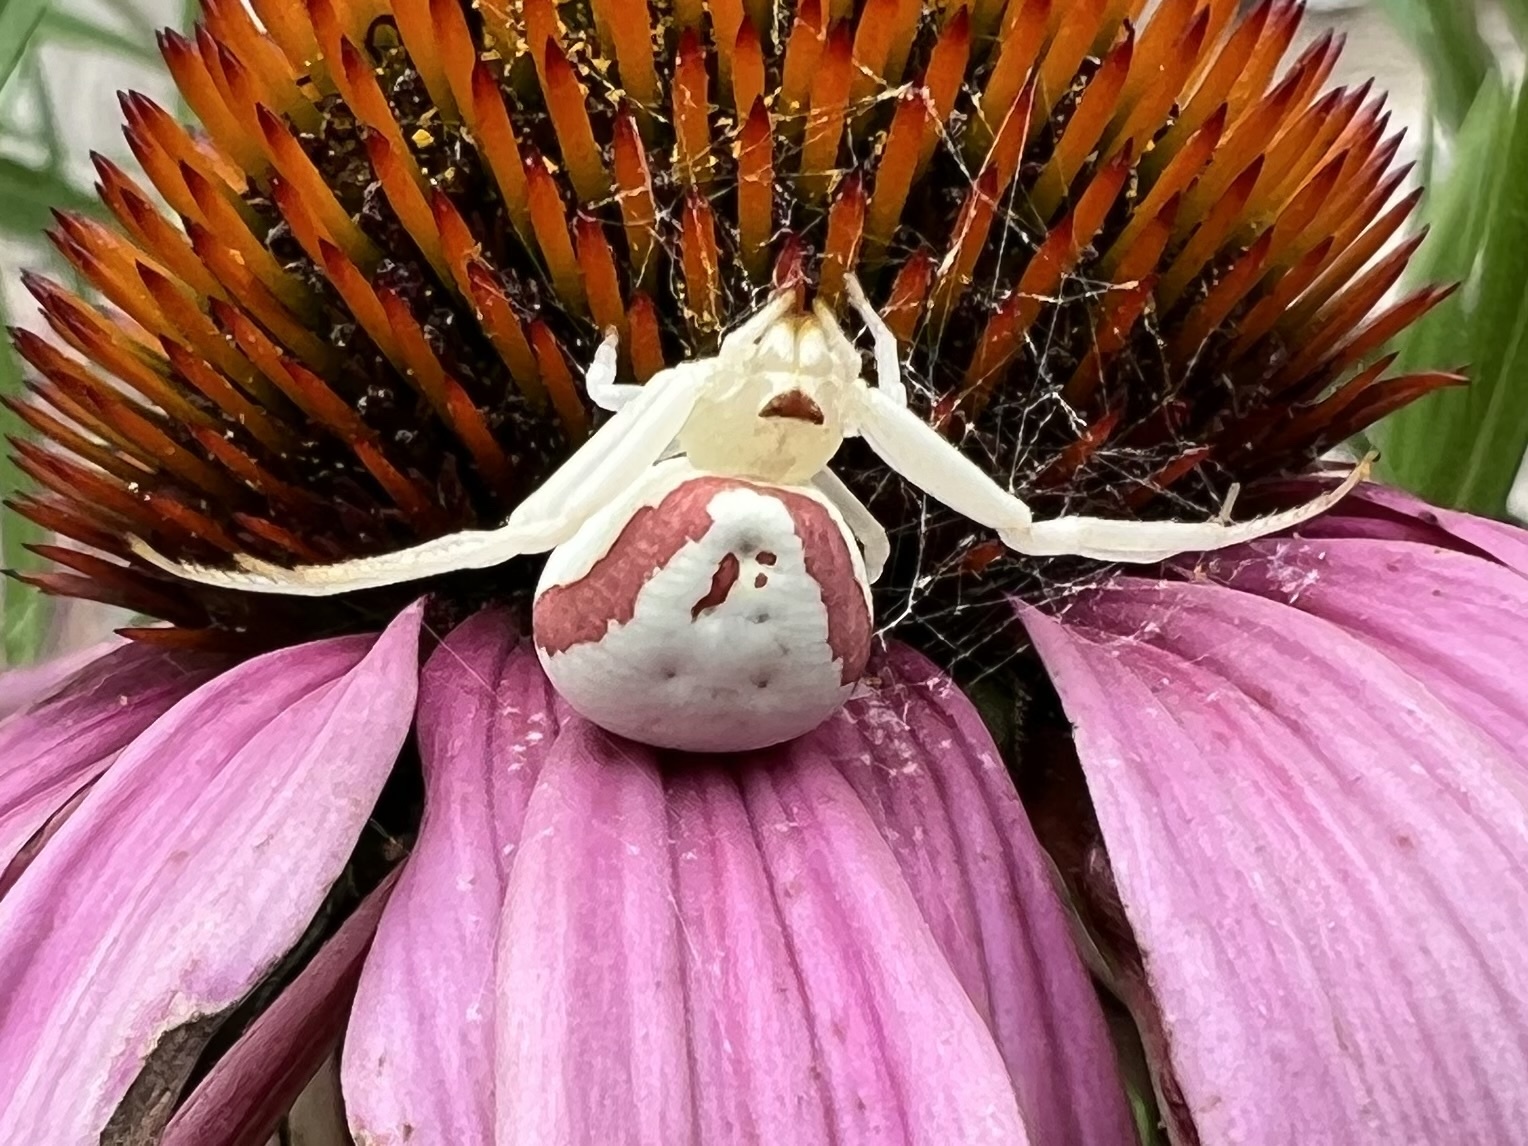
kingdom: Animalia
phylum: Arthropoda
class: Arachnida
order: Araneae
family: Thomisidae
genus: Misumena
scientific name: Misumena vatia
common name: Goldenrod crab spider
